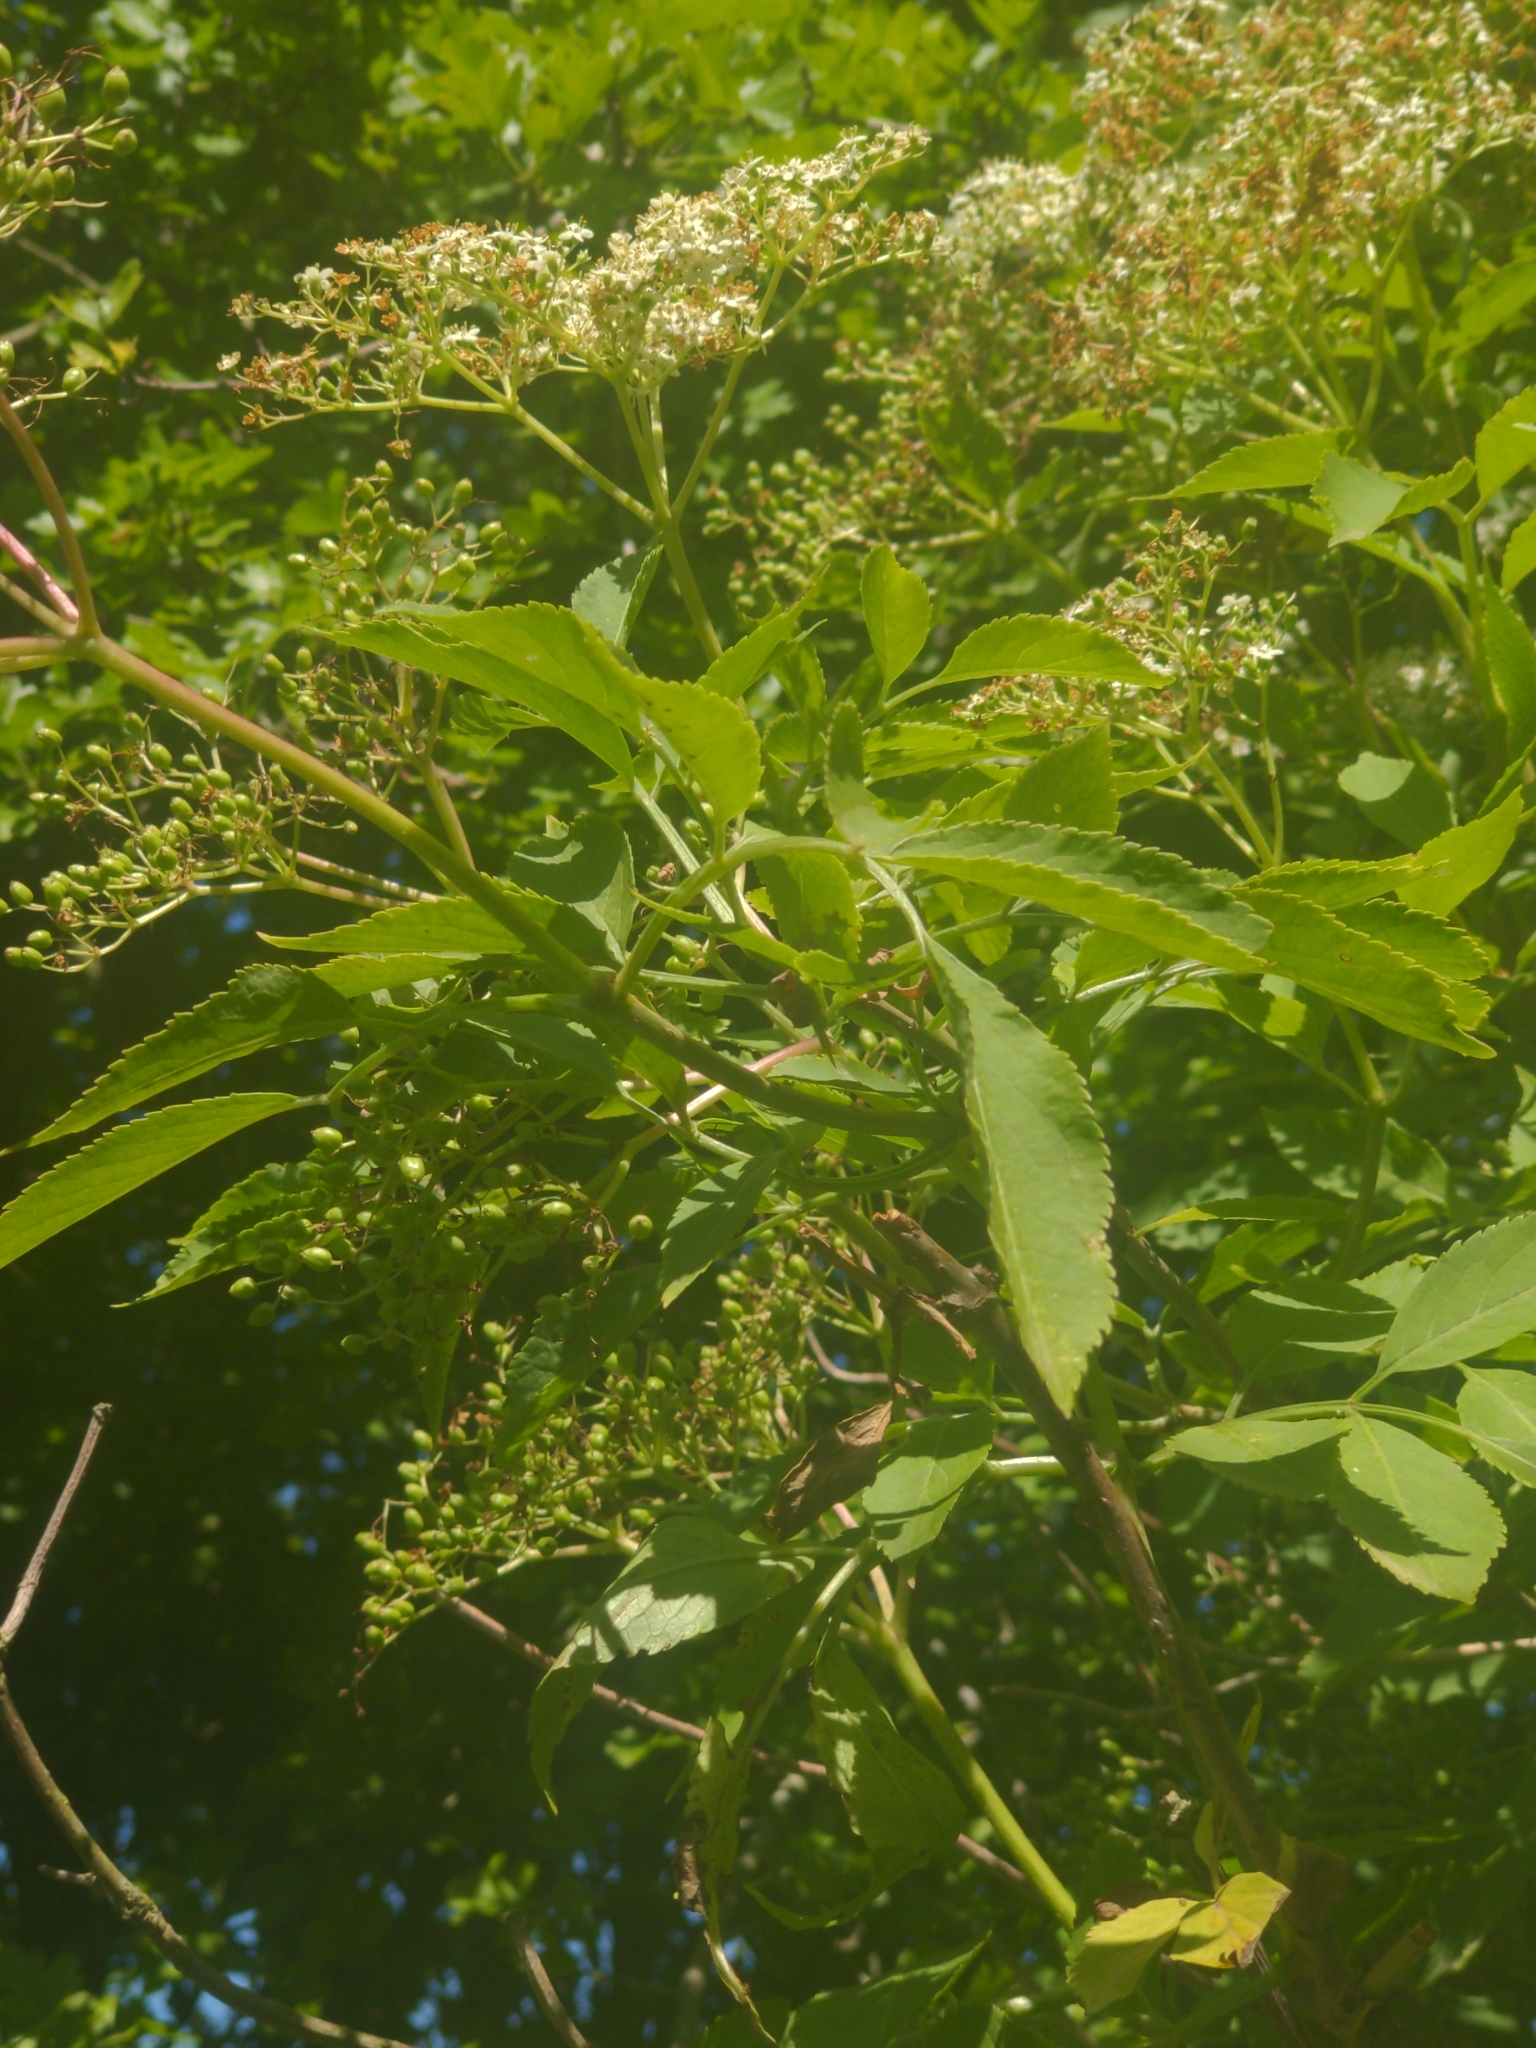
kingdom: Plantae
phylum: Tracheophyta
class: Magnoliopsida
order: Dipsacales
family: Viburnaceae
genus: Sambucus
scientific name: Sambucus nigra
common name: Elder
